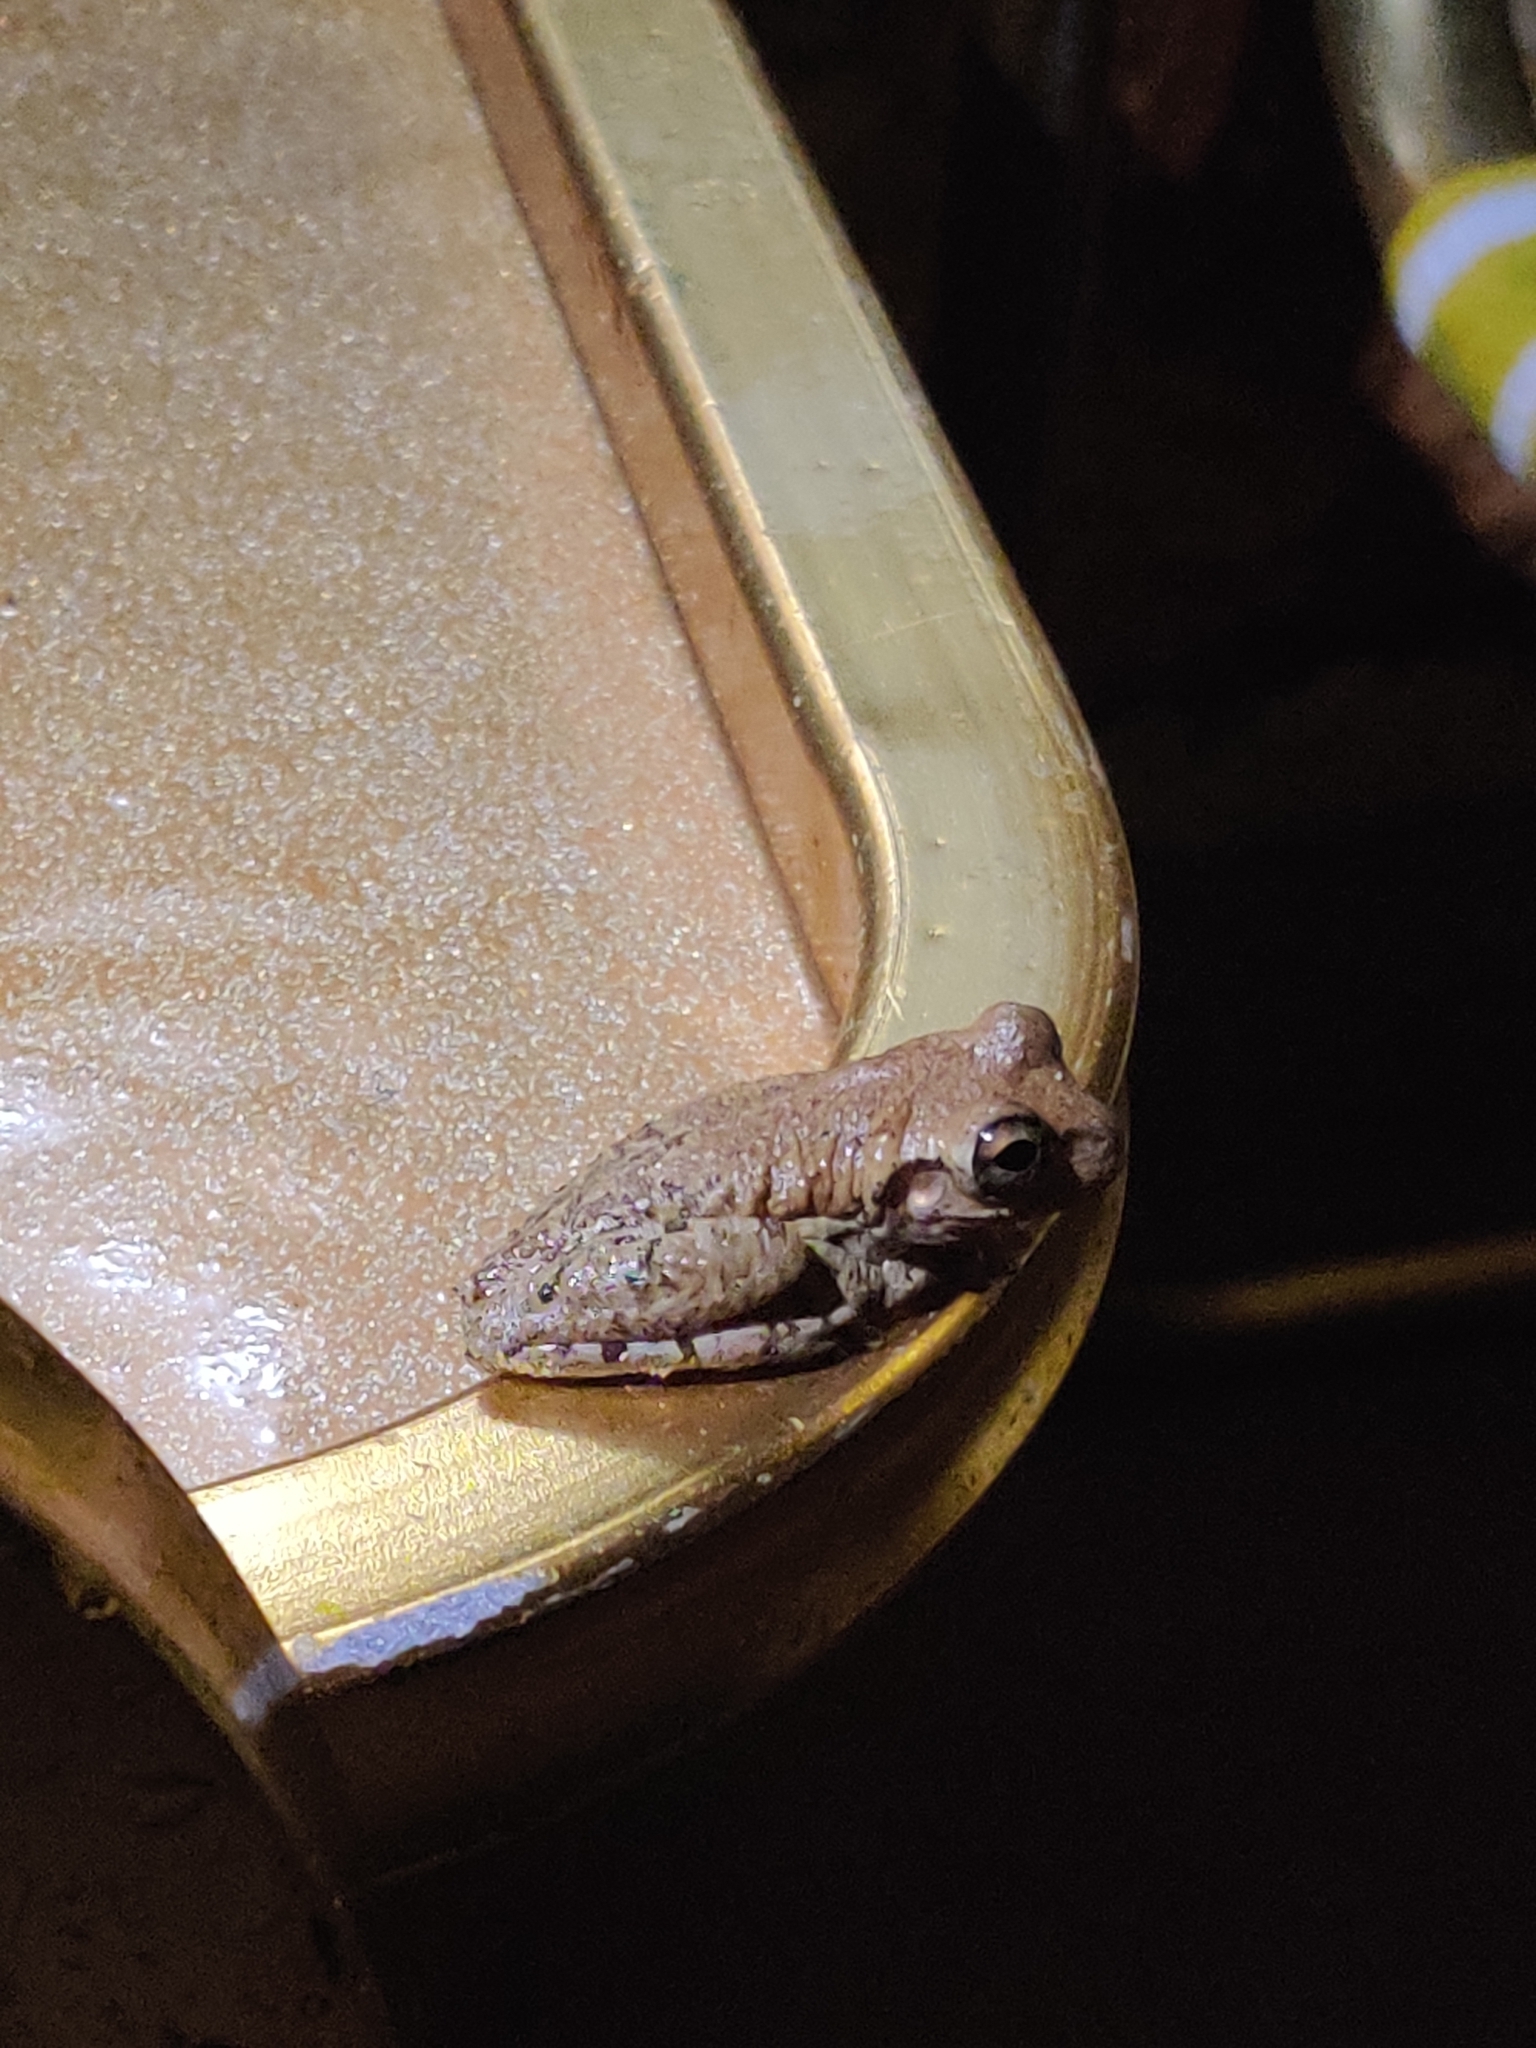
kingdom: Animalia
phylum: Chordata
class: Amphibia
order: Anura
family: Hylidae
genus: Osteopilus
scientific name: Osteopilus septentrionalis
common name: Cuban treefrog
